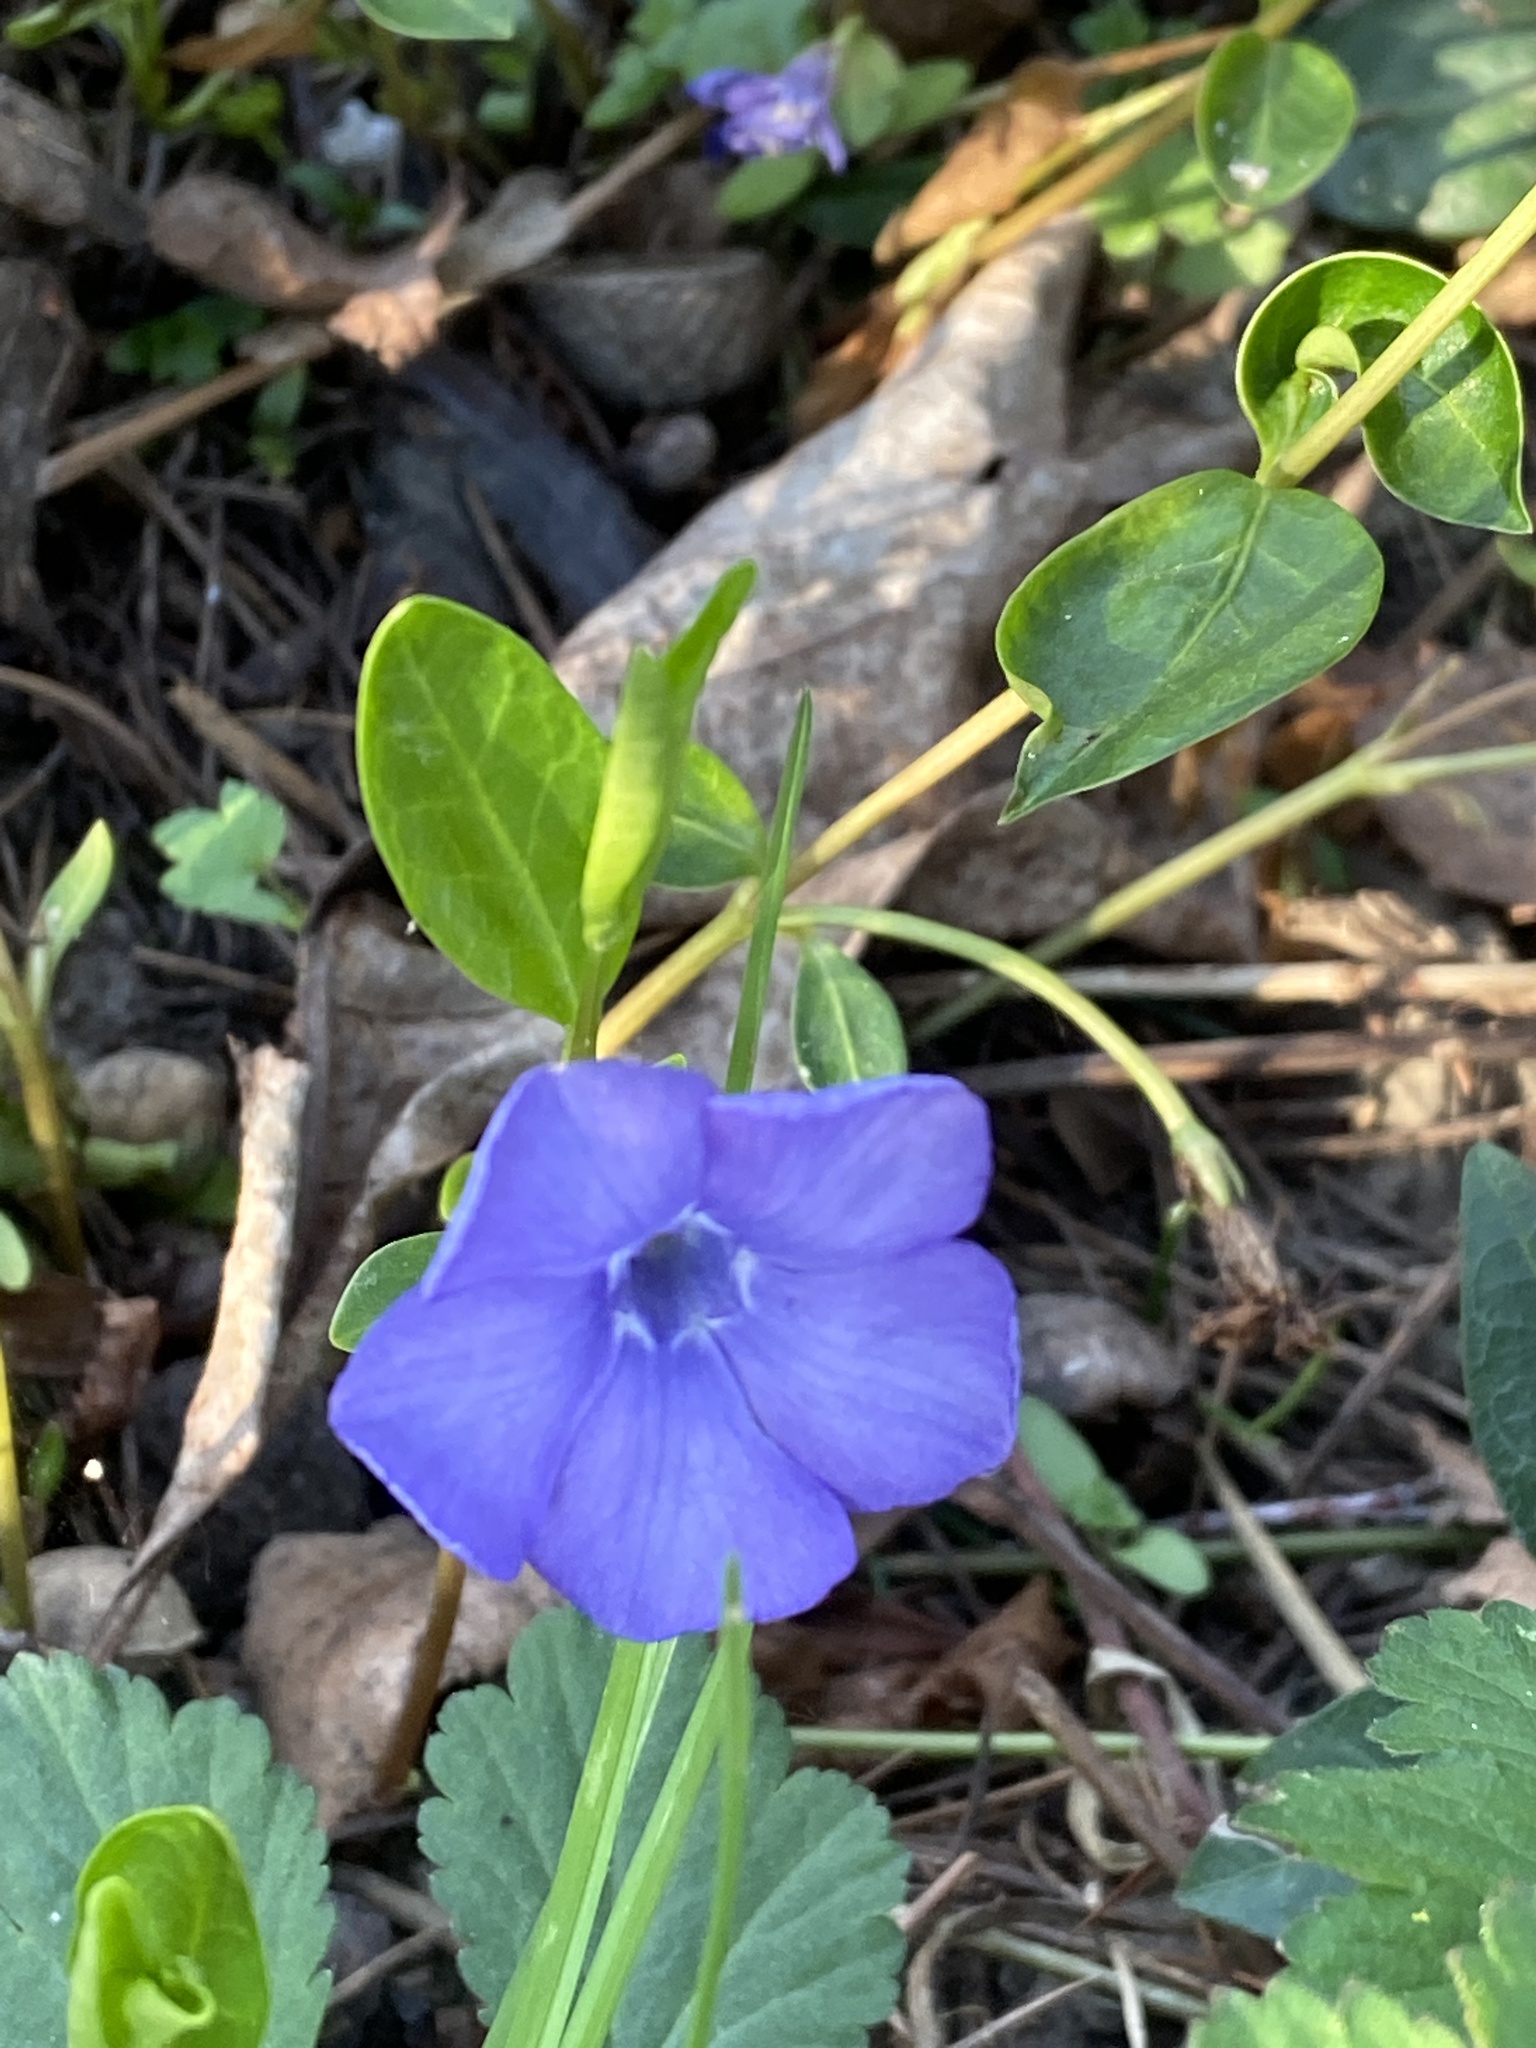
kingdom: Plantae
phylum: Tracheophyta
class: Magnoliopsida
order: Gentianales
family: Apocynaceae
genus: Vinca
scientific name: Vinca minor
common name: Lesser periwinkle
